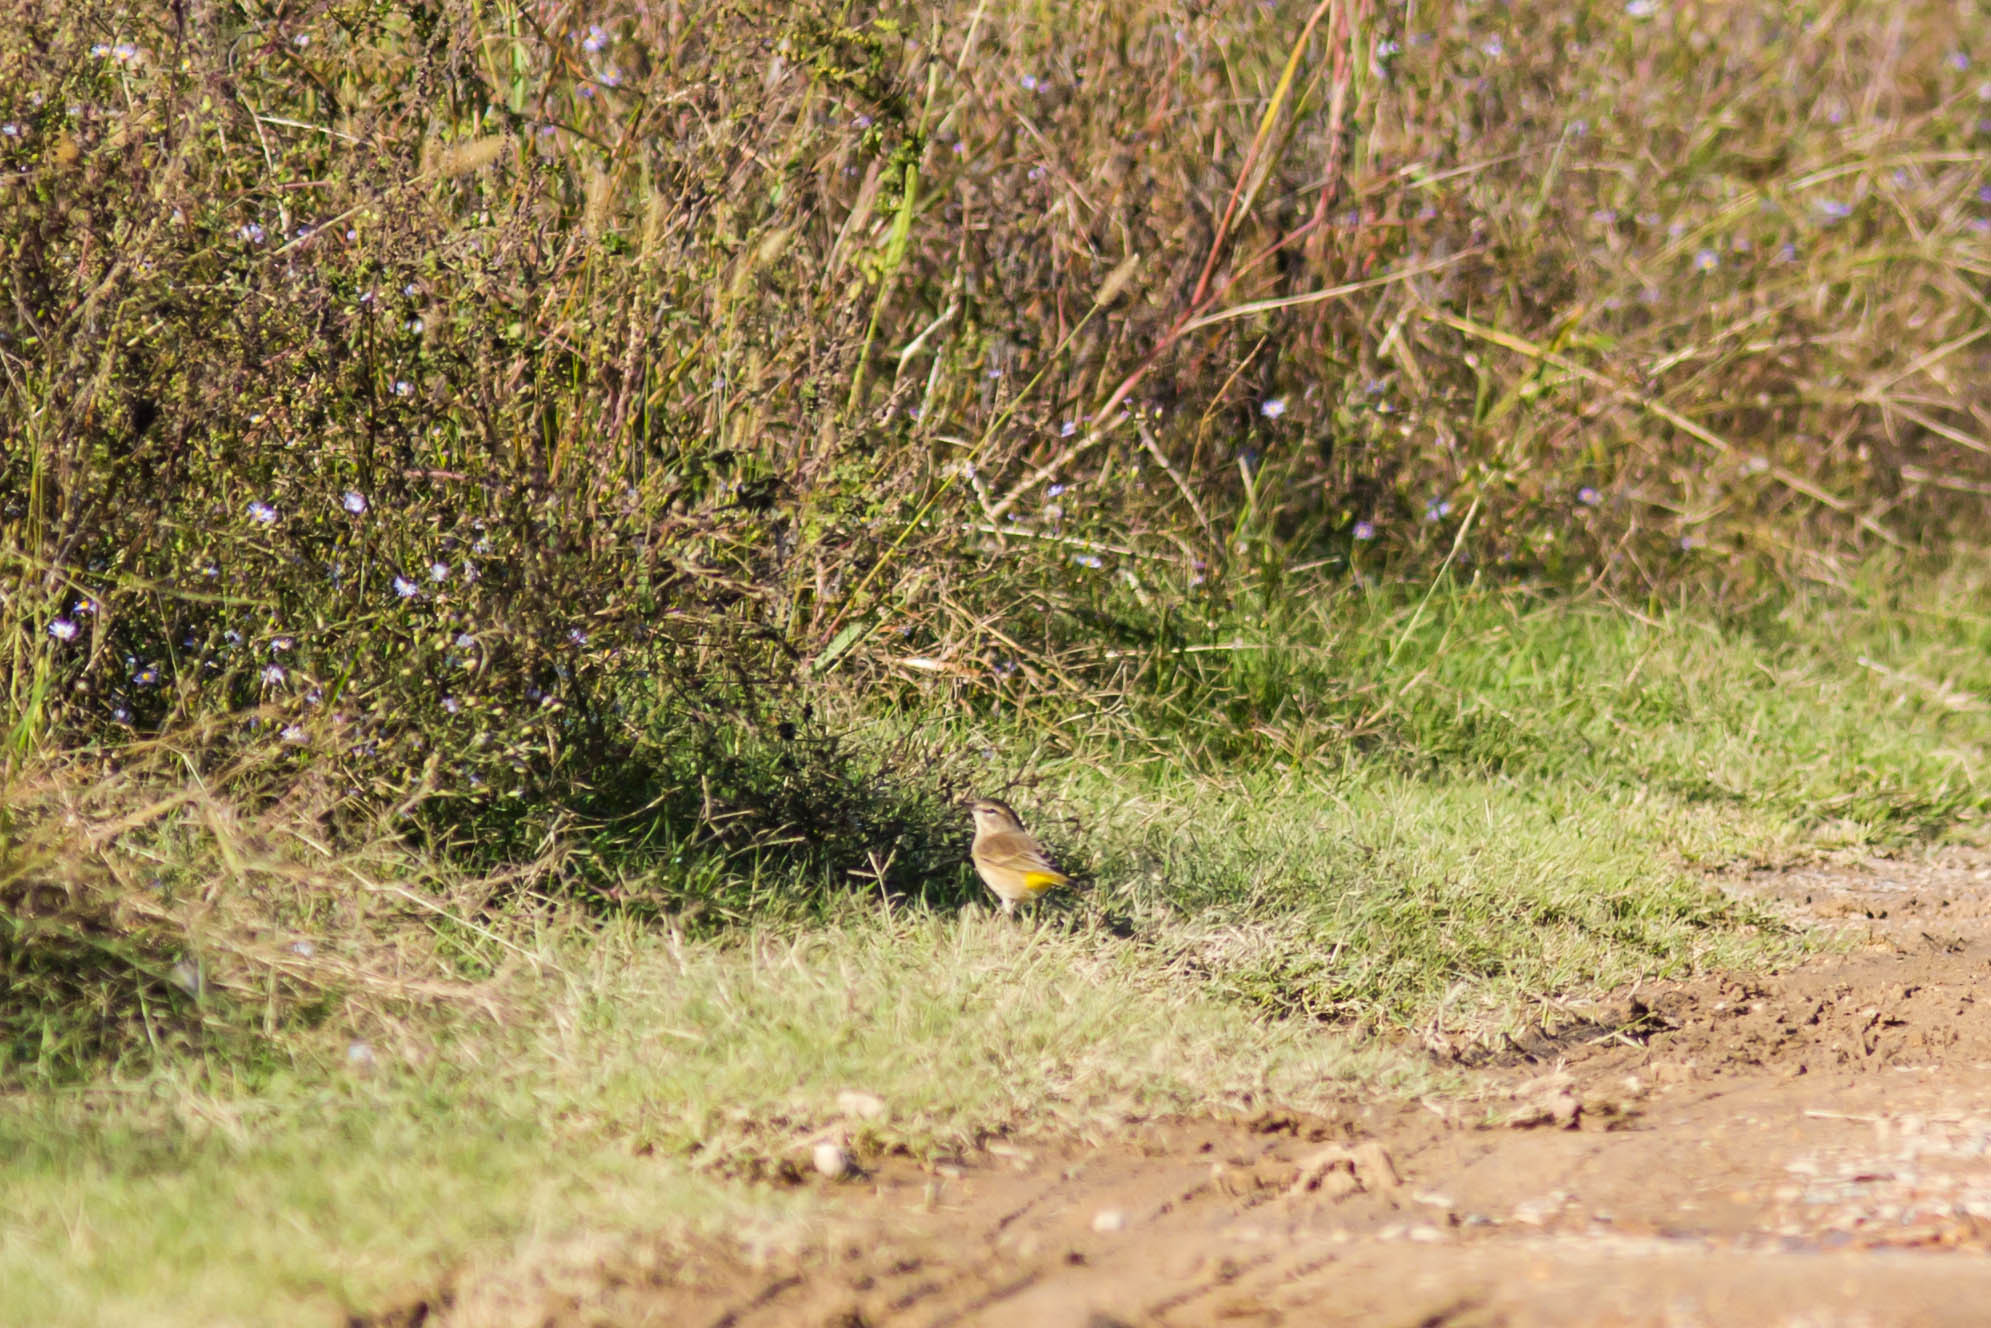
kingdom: Animalia
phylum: Chordata
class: Aves
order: Passeriformes
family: Parulidae
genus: Setophaga
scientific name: Setophaga palmarum
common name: Palm warbler
